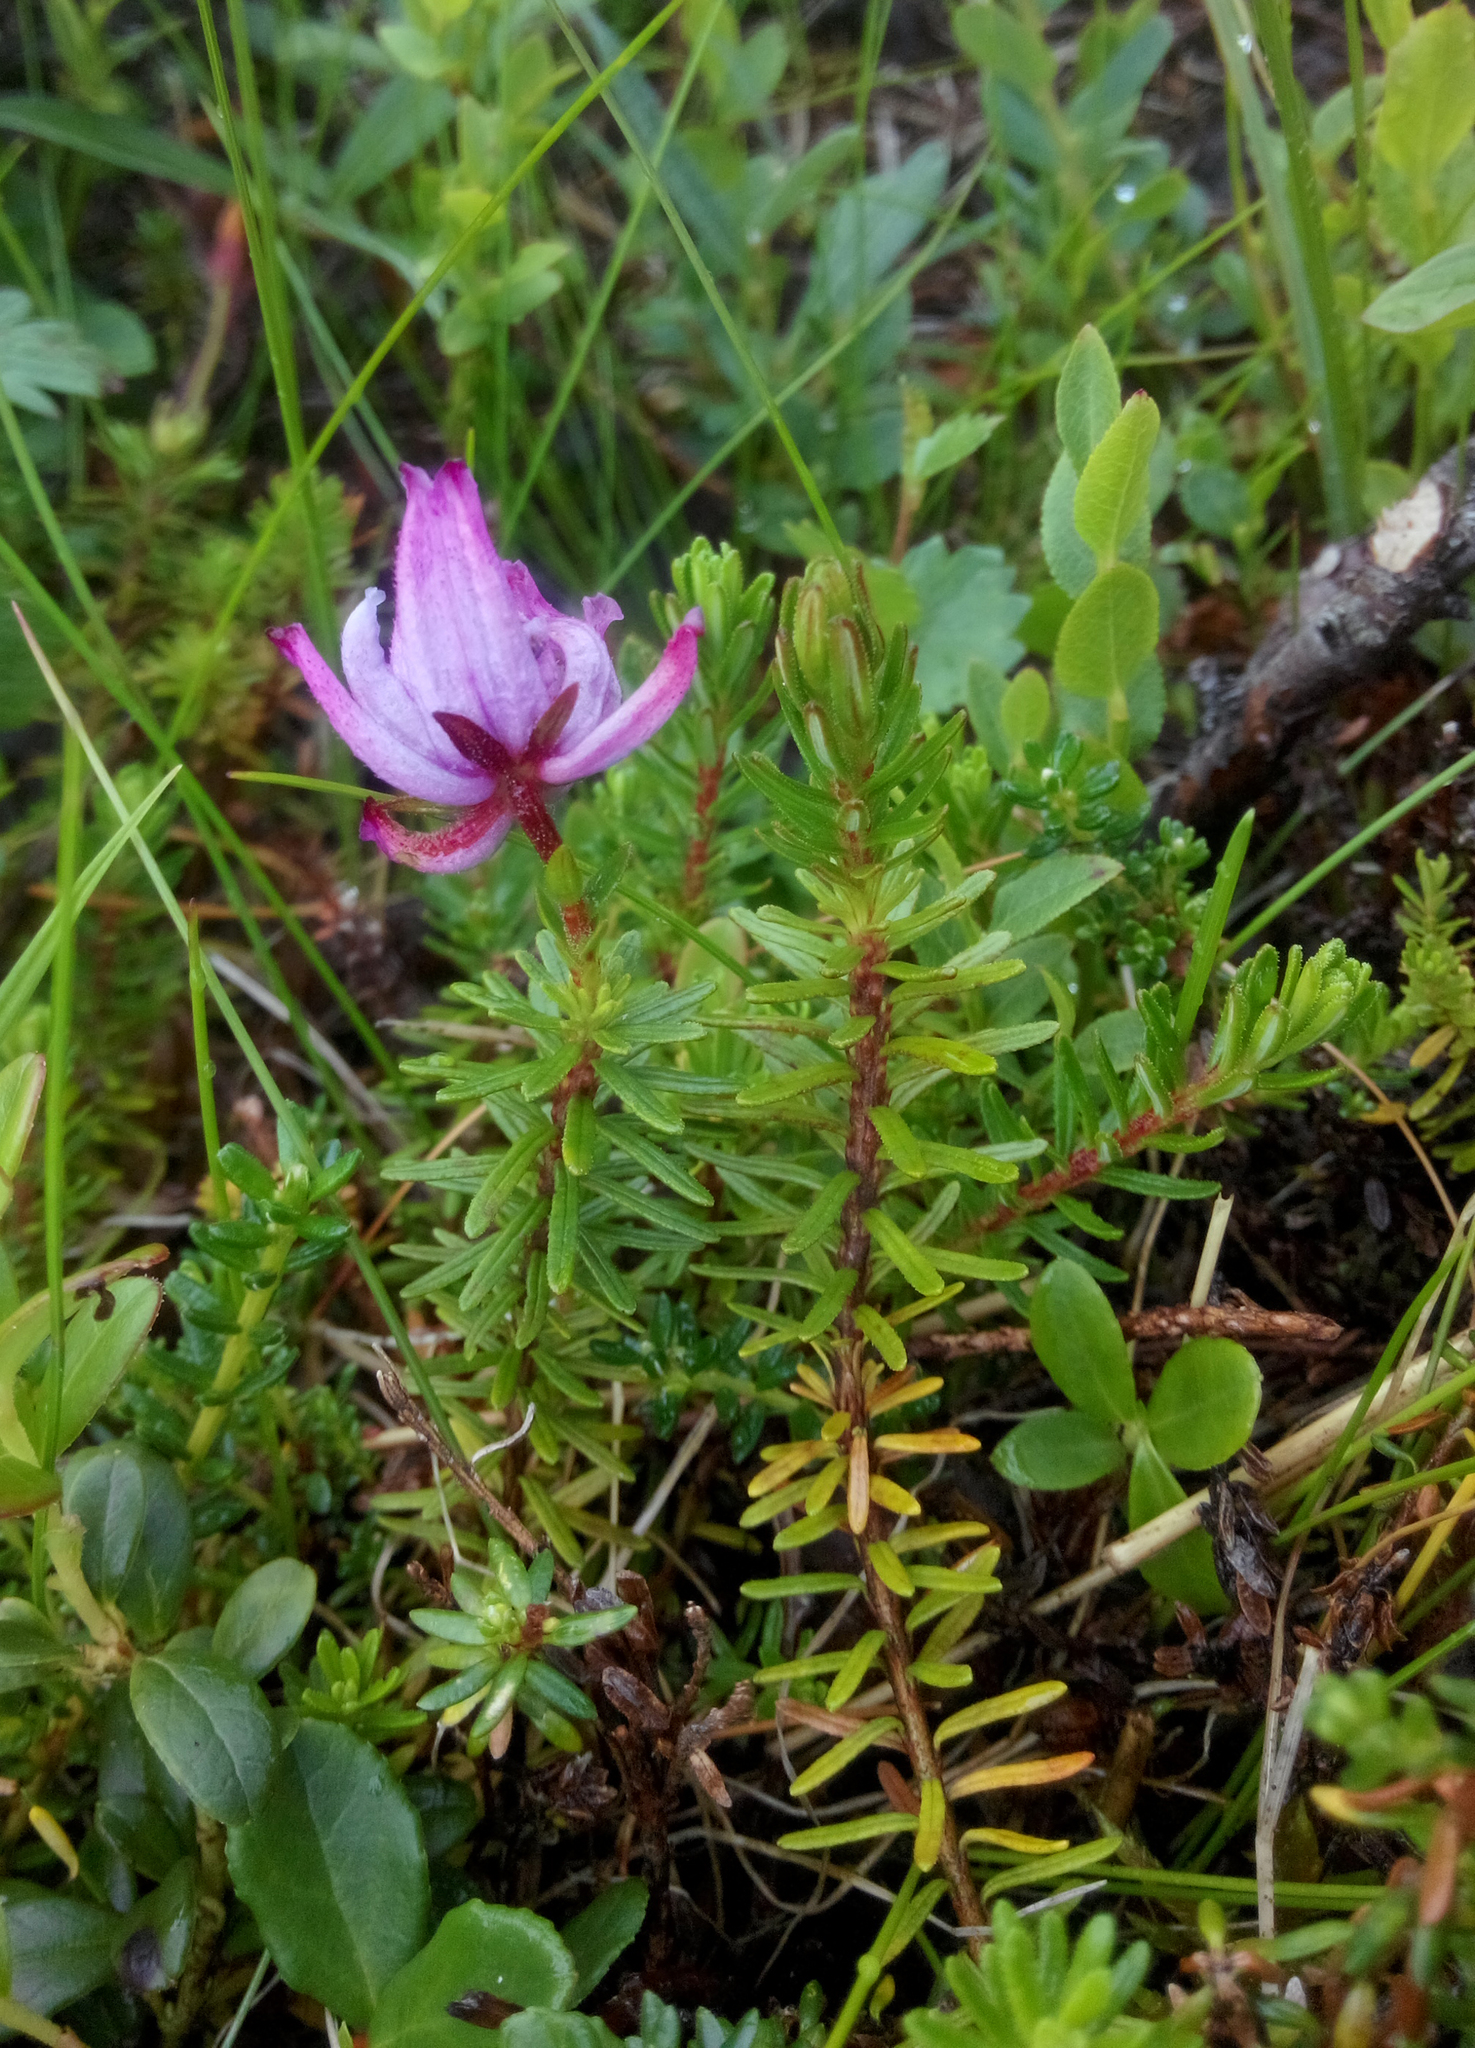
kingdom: Plantae
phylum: Tracheophyta
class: Magnoliopsida
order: Ericales
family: Ericaceae
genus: Phyllodoce
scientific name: Phyllodoce caerulea
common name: Blue heath
